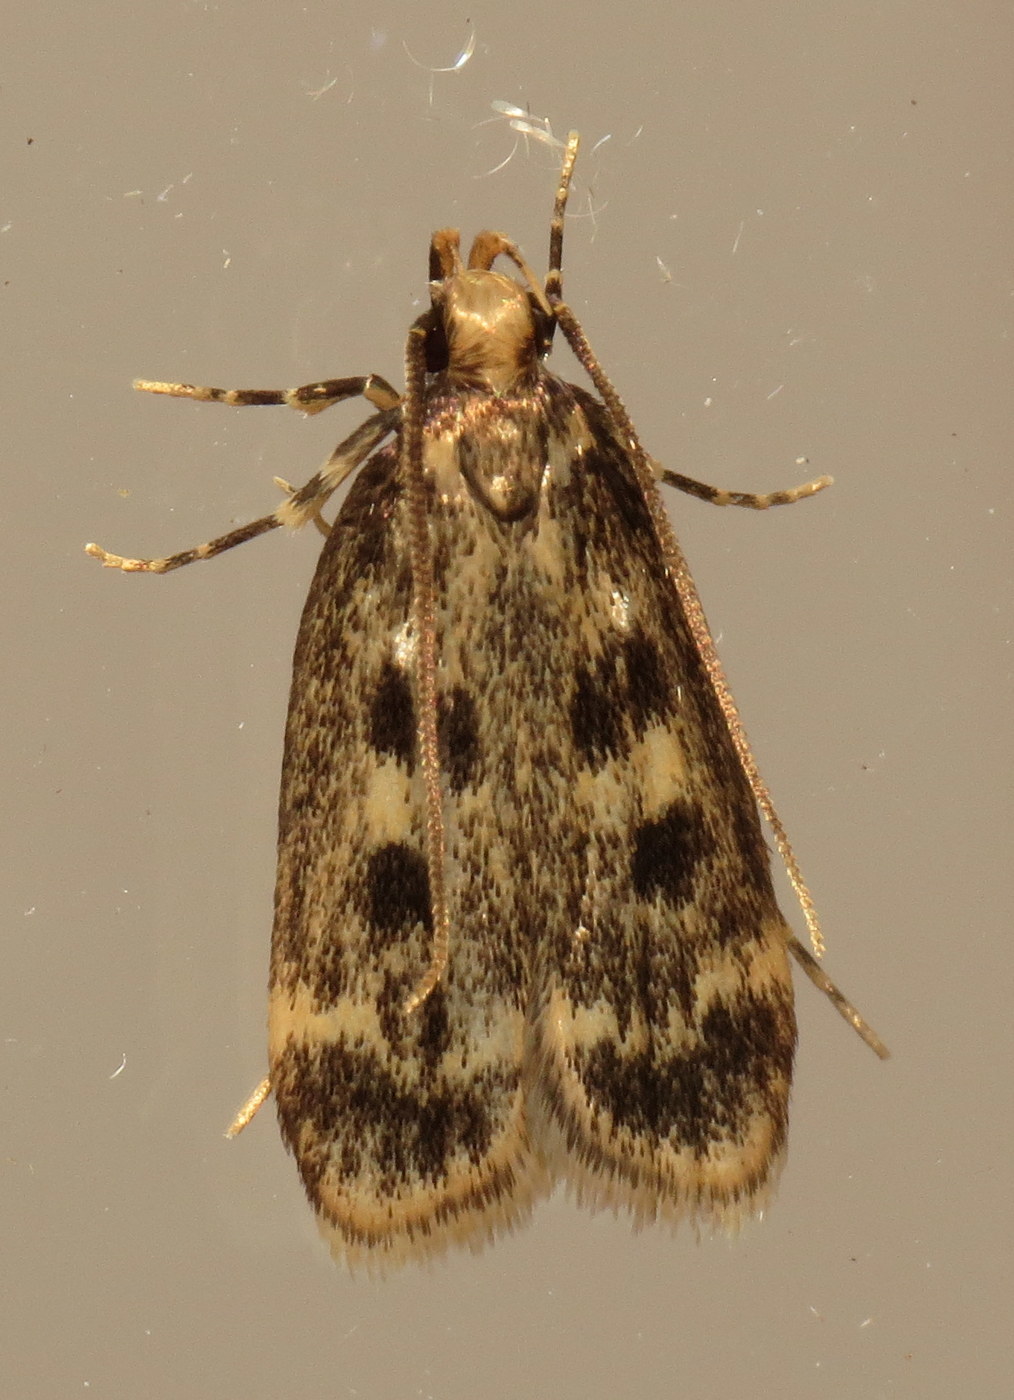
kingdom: Animalia
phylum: Arthropoda
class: Insecta
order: Lepidoptera
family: Lecithoceridae
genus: Martyringa
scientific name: Martyringa latipennis
